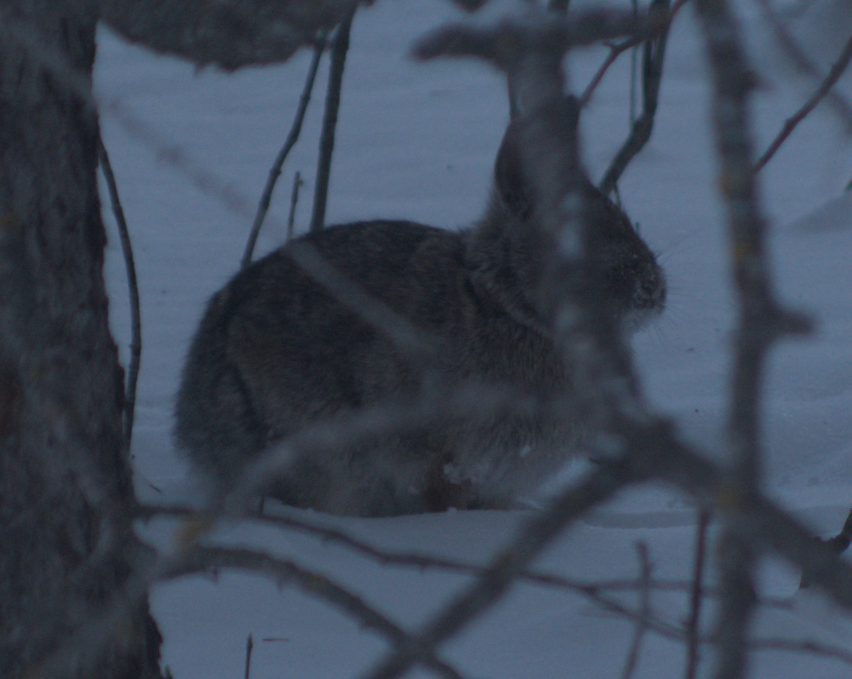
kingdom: Animalia
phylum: Chordata
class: Mammalia
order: Lagomorpha
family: Leporidae
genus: Sylvilagus
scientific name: Sylvilagus floridanus
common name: Eastern cottontail
